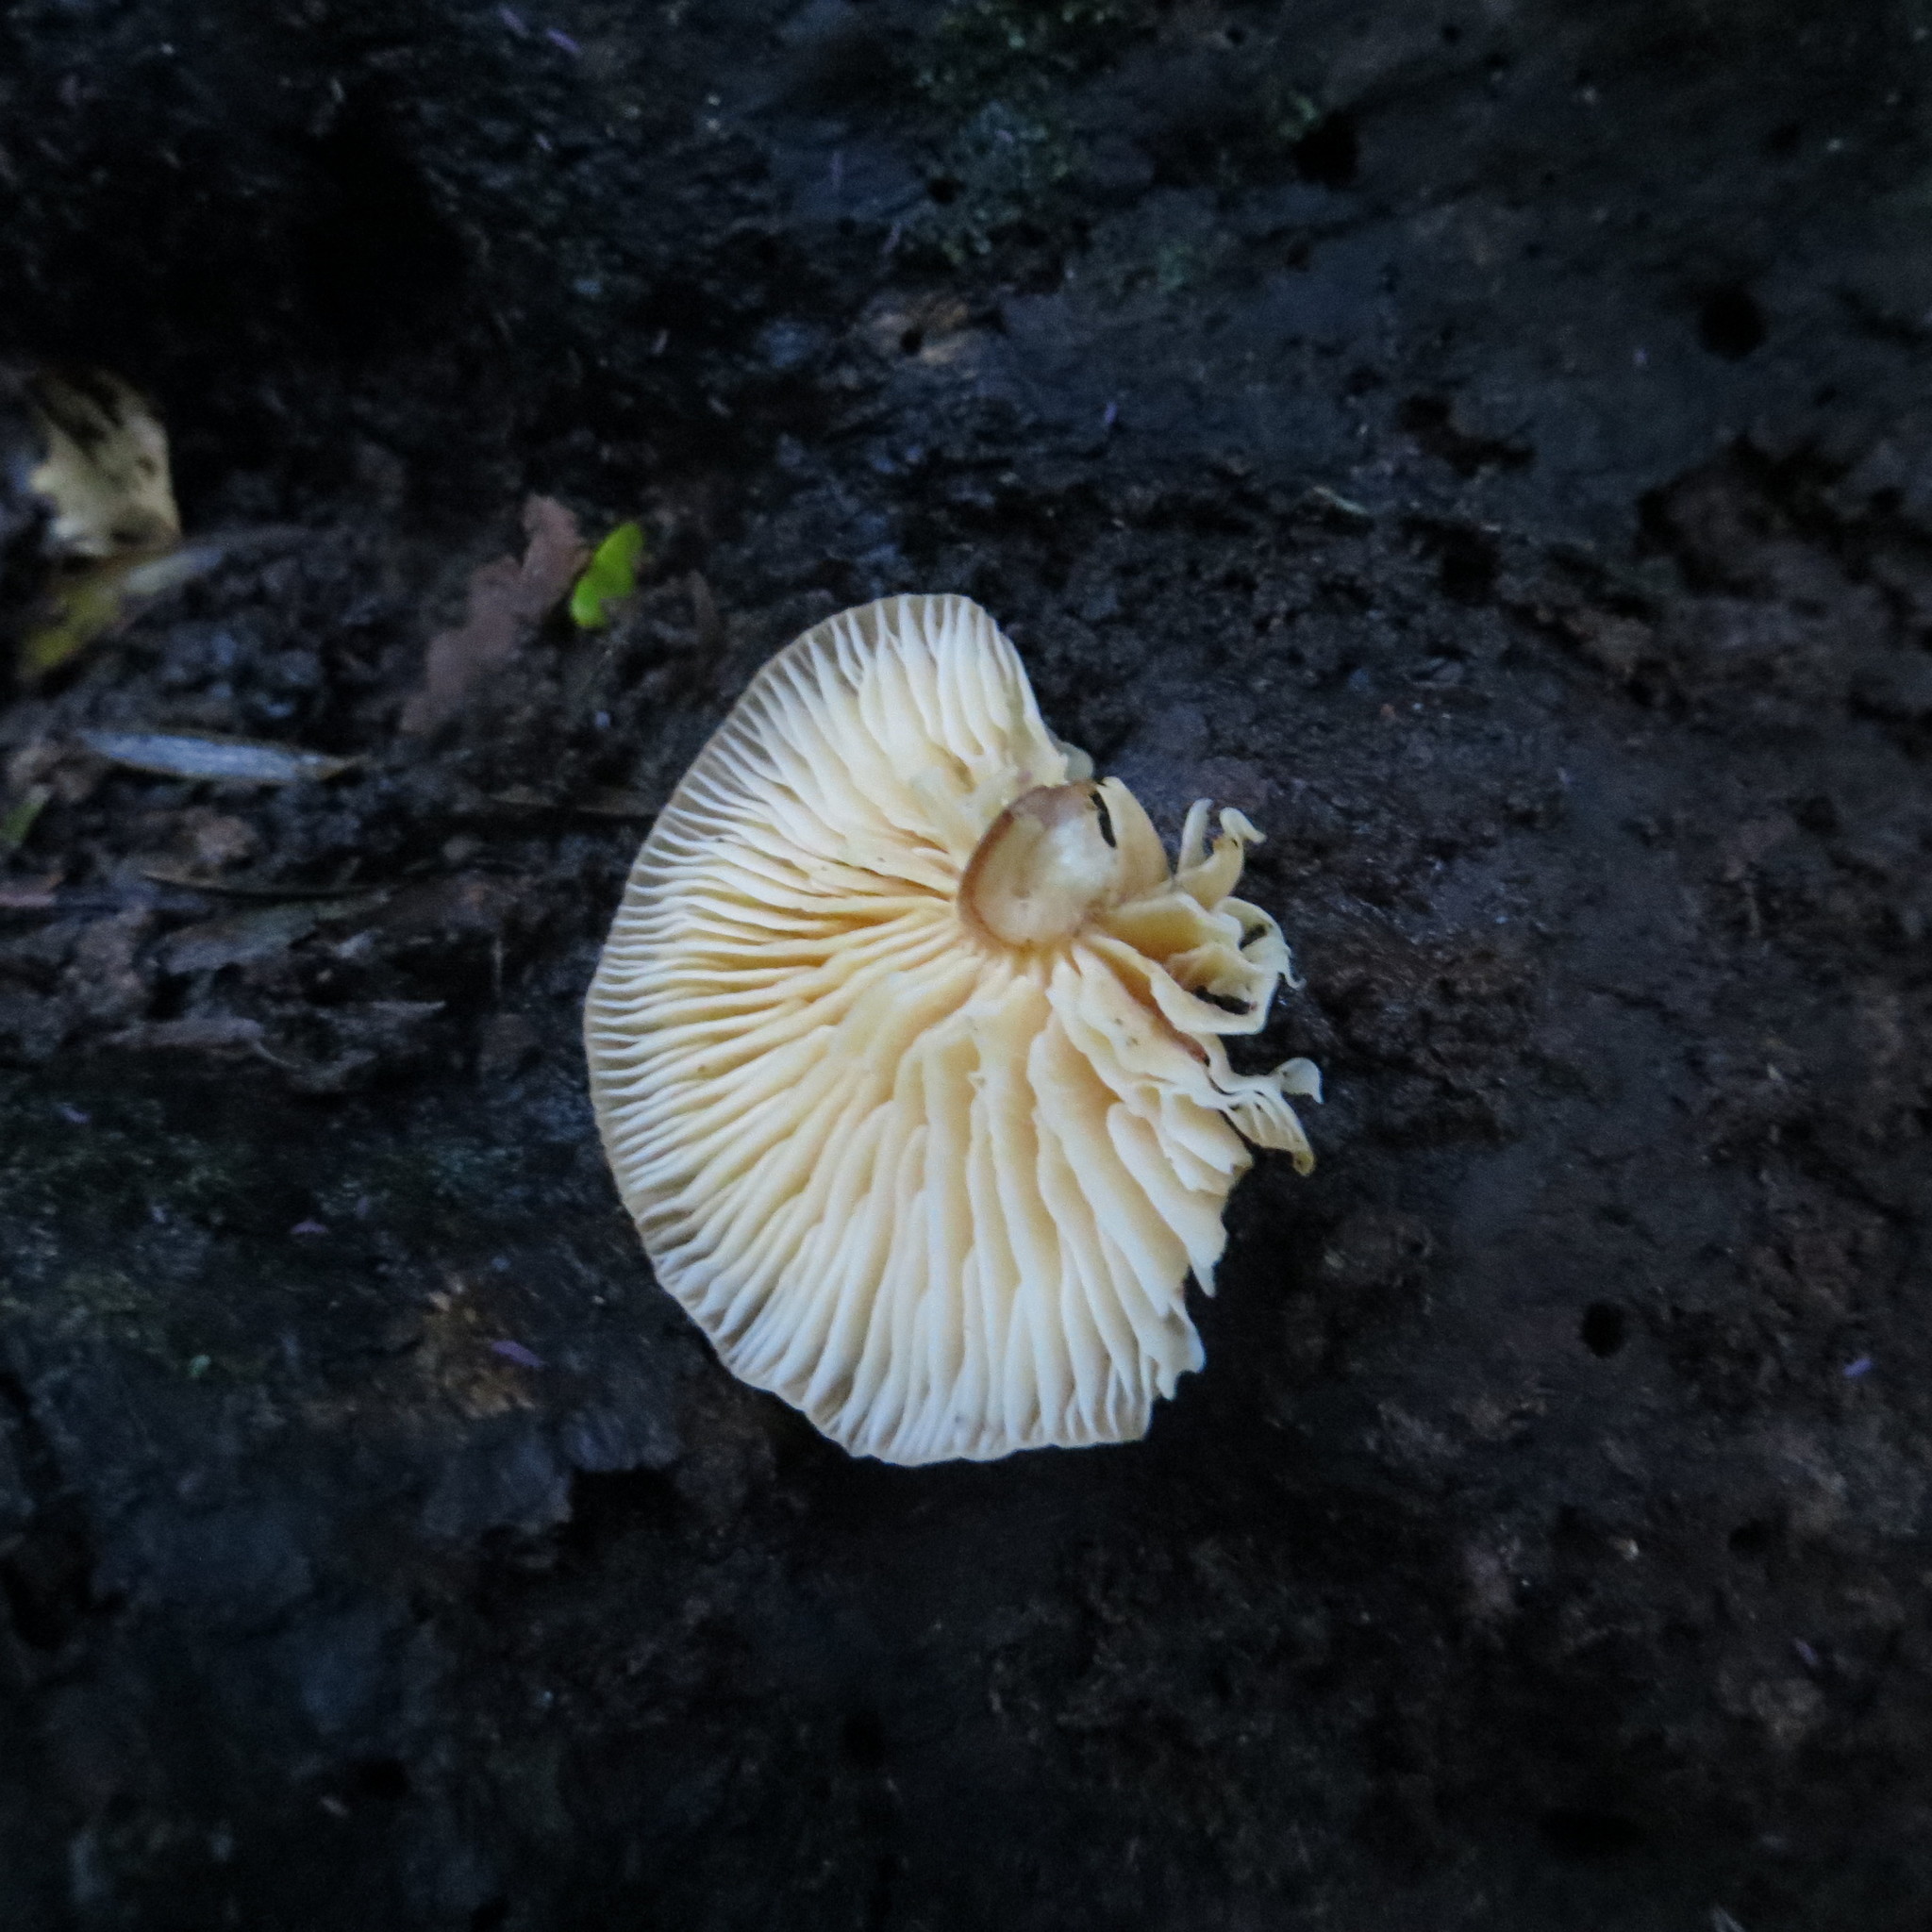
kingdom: Fungi
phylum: Basidiomycota
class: Agaricomycetes
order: Agaricales
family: Physalacriaceae
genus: Flammulina
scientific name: Flammulina velutipes
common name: Velvet shank
